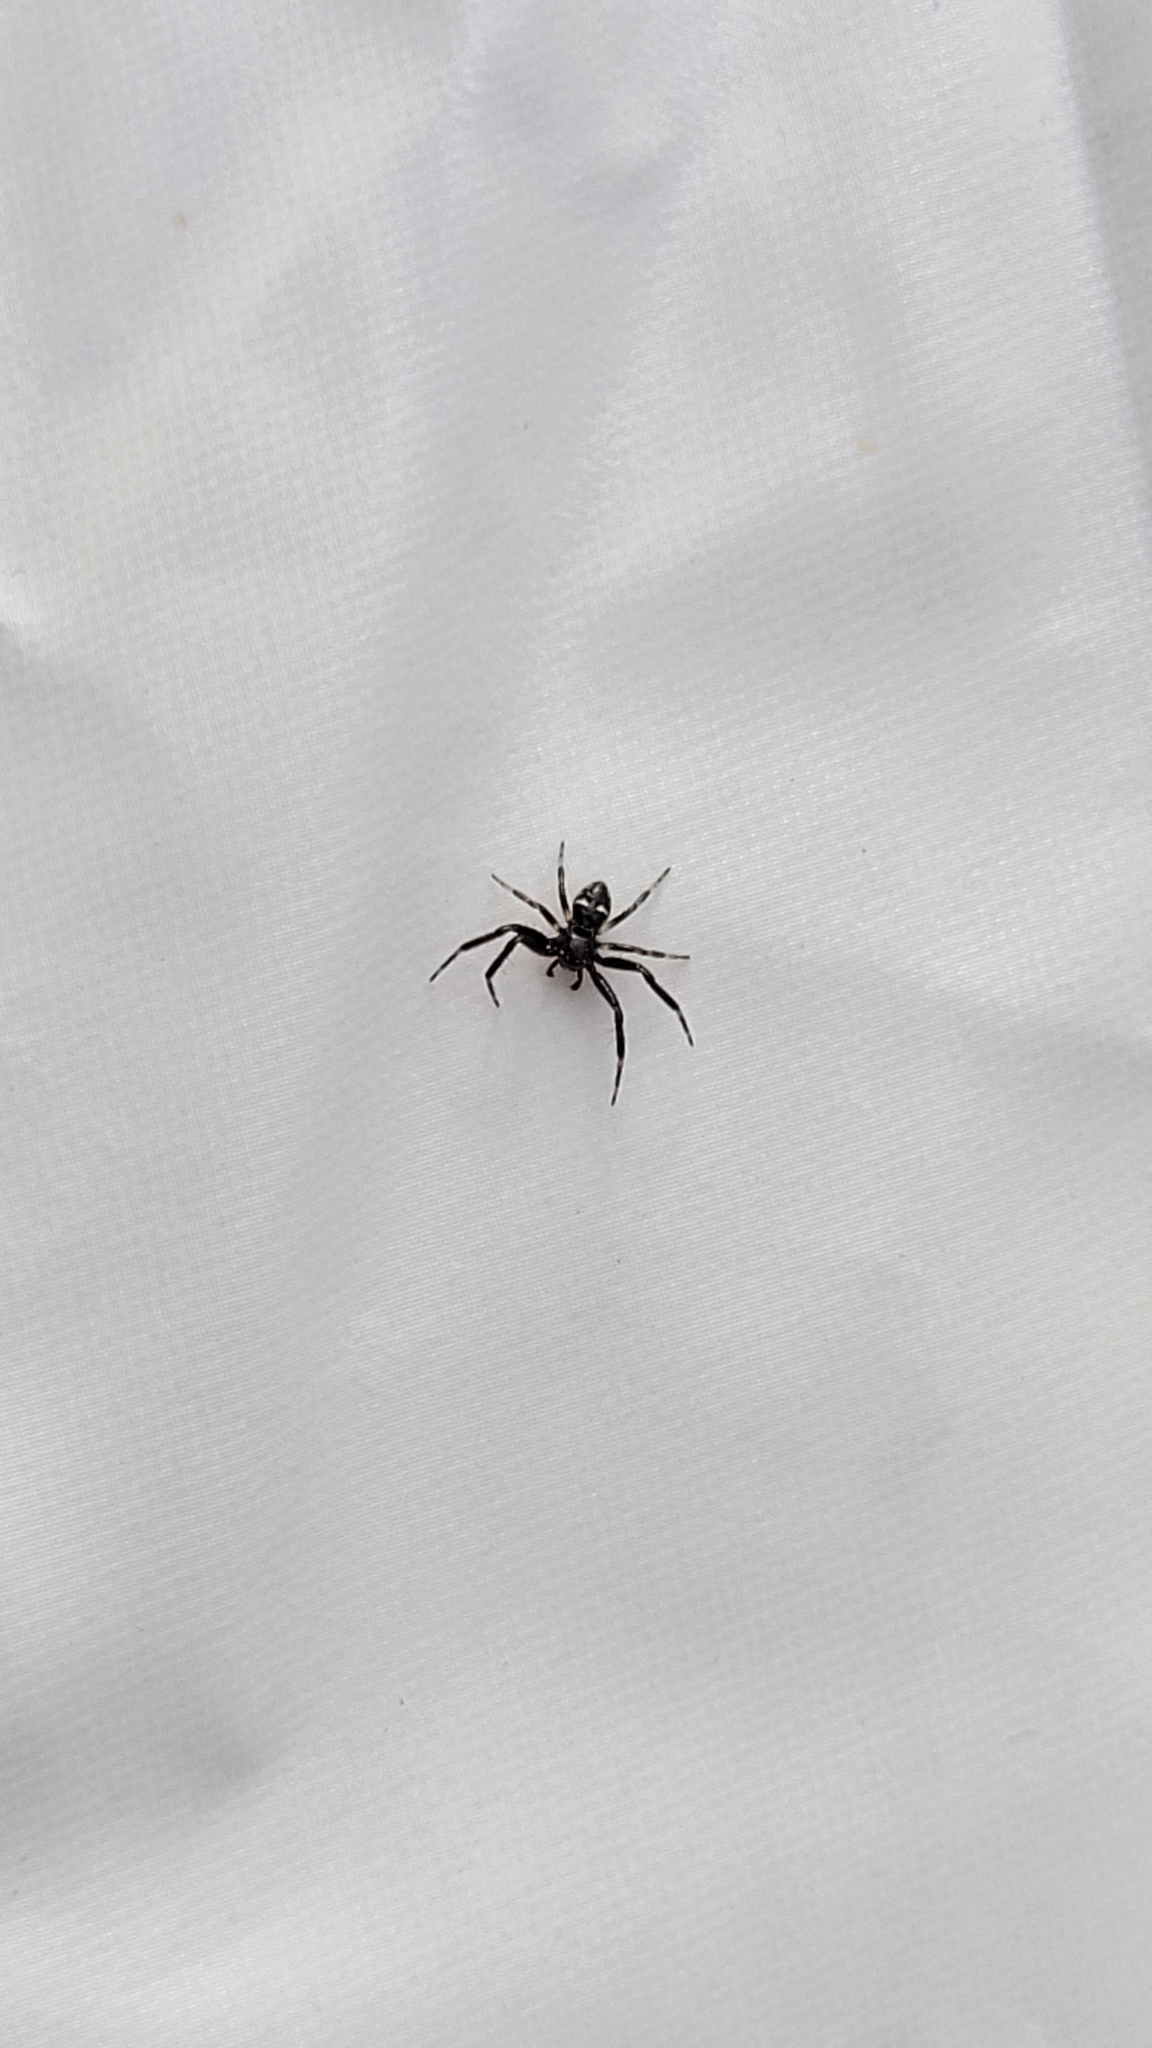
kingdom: Animalia
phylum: Arthropoda
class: Arachnida
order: Araneae
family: Thomisidae
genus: Synema
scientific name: Synema globosum
